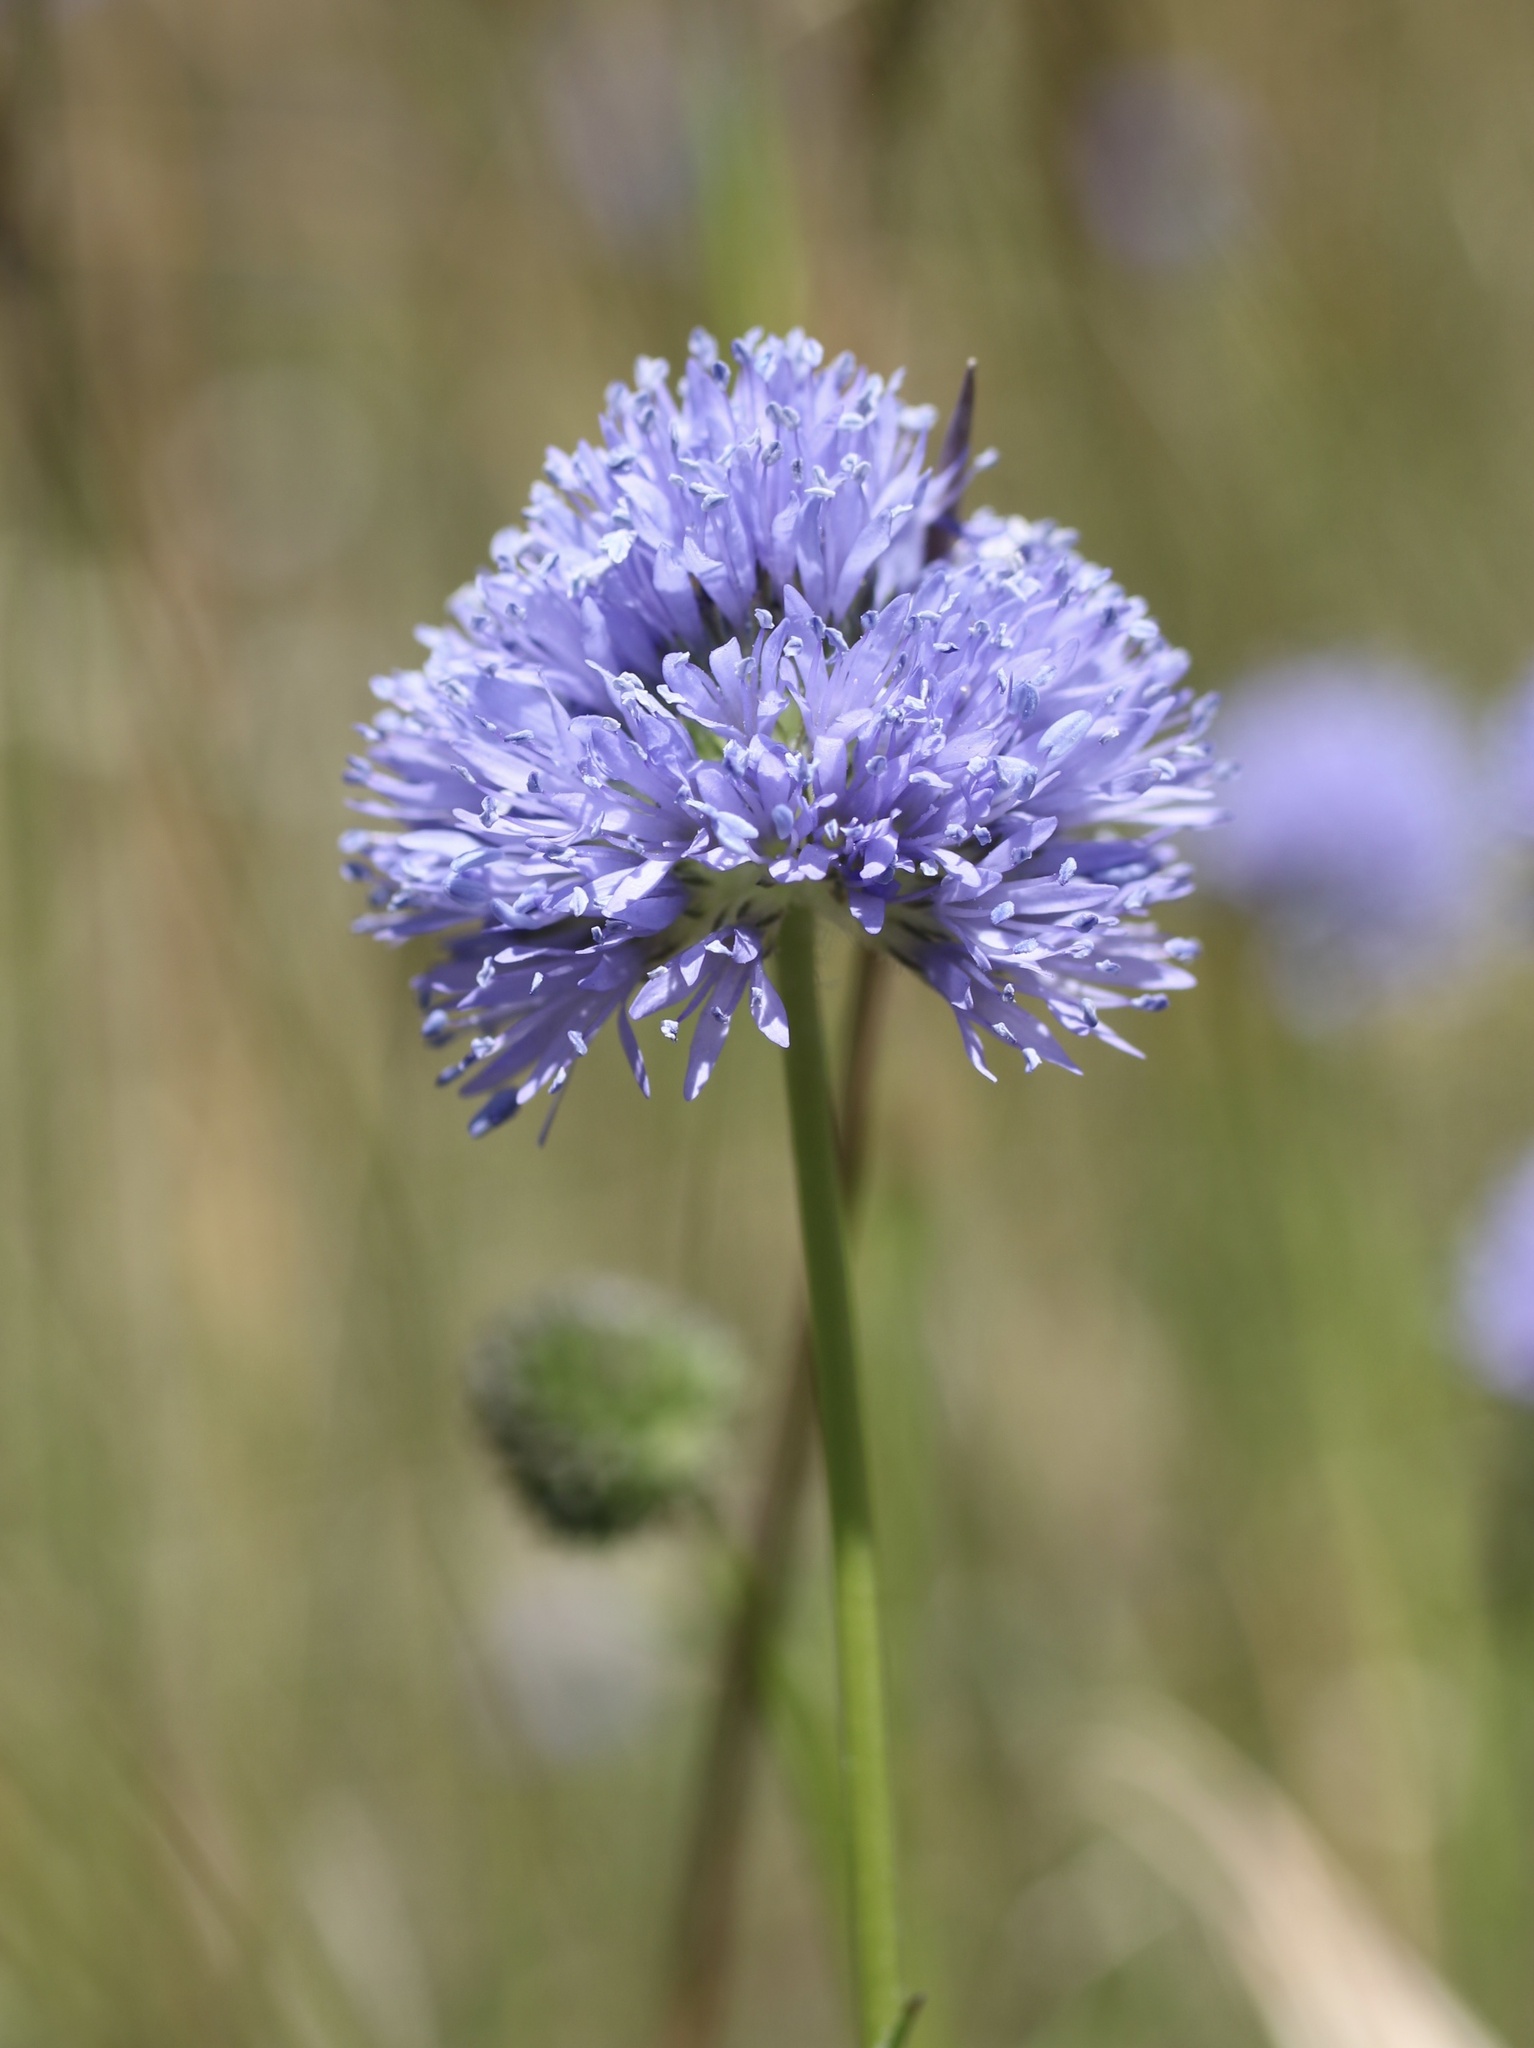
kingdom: Plantae
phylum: Tracheophyta
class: Magnoliopsida
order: Ericales
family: Polemoniaceae
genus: Gilia
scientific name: Gilia capitata
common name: Bluehead gilia
